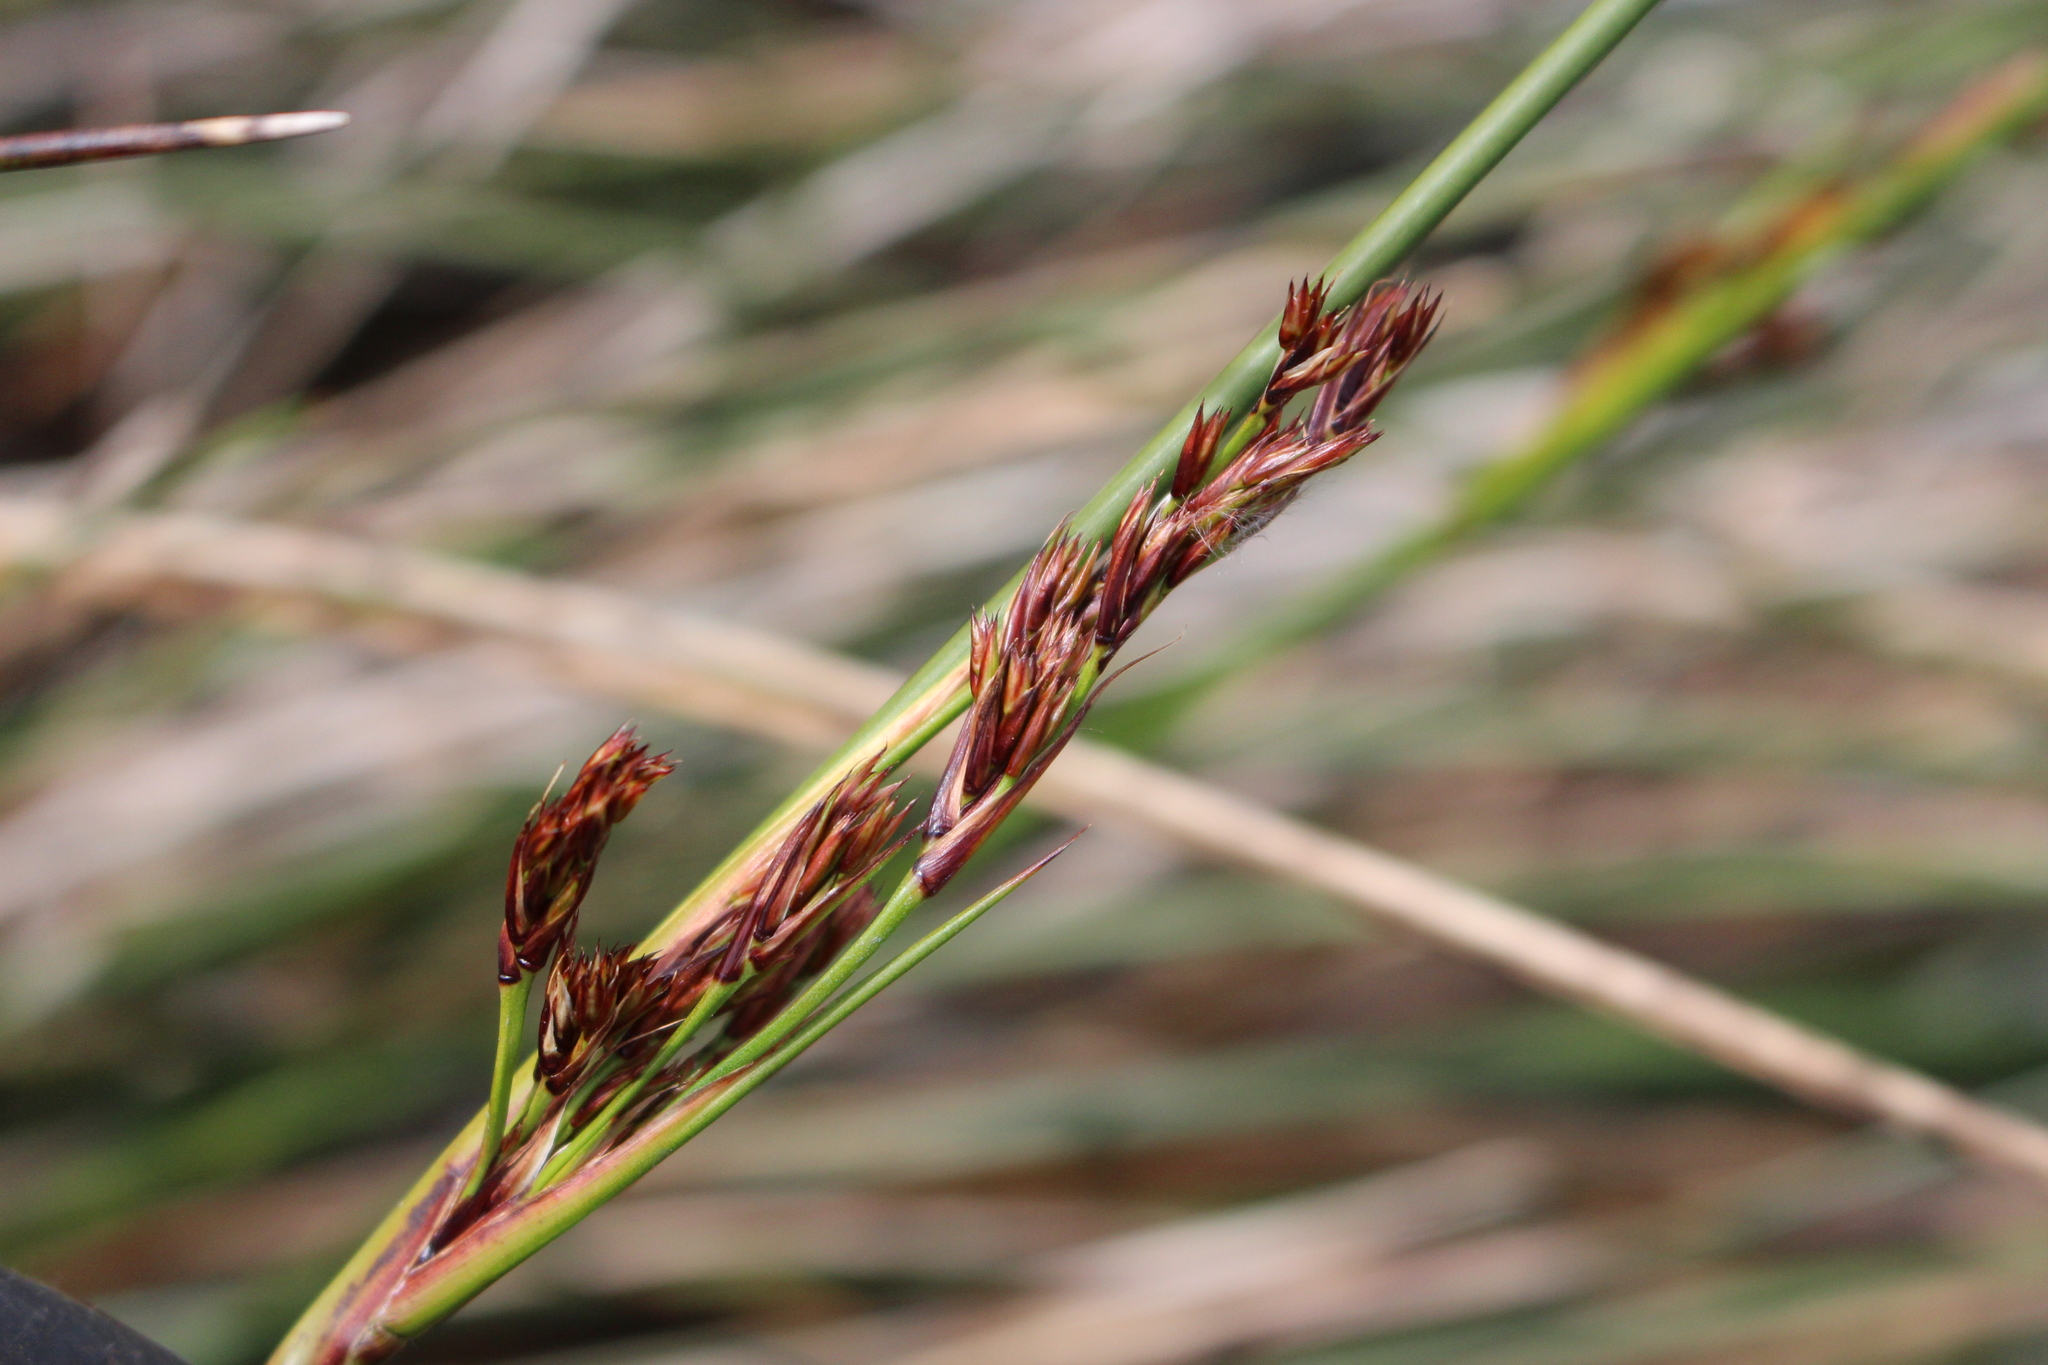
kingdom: Plantae
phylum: Tracheophyta
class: Liliopsida
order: Poales
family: Juncaceae
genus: Juncus
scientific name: Juncus kraussii
